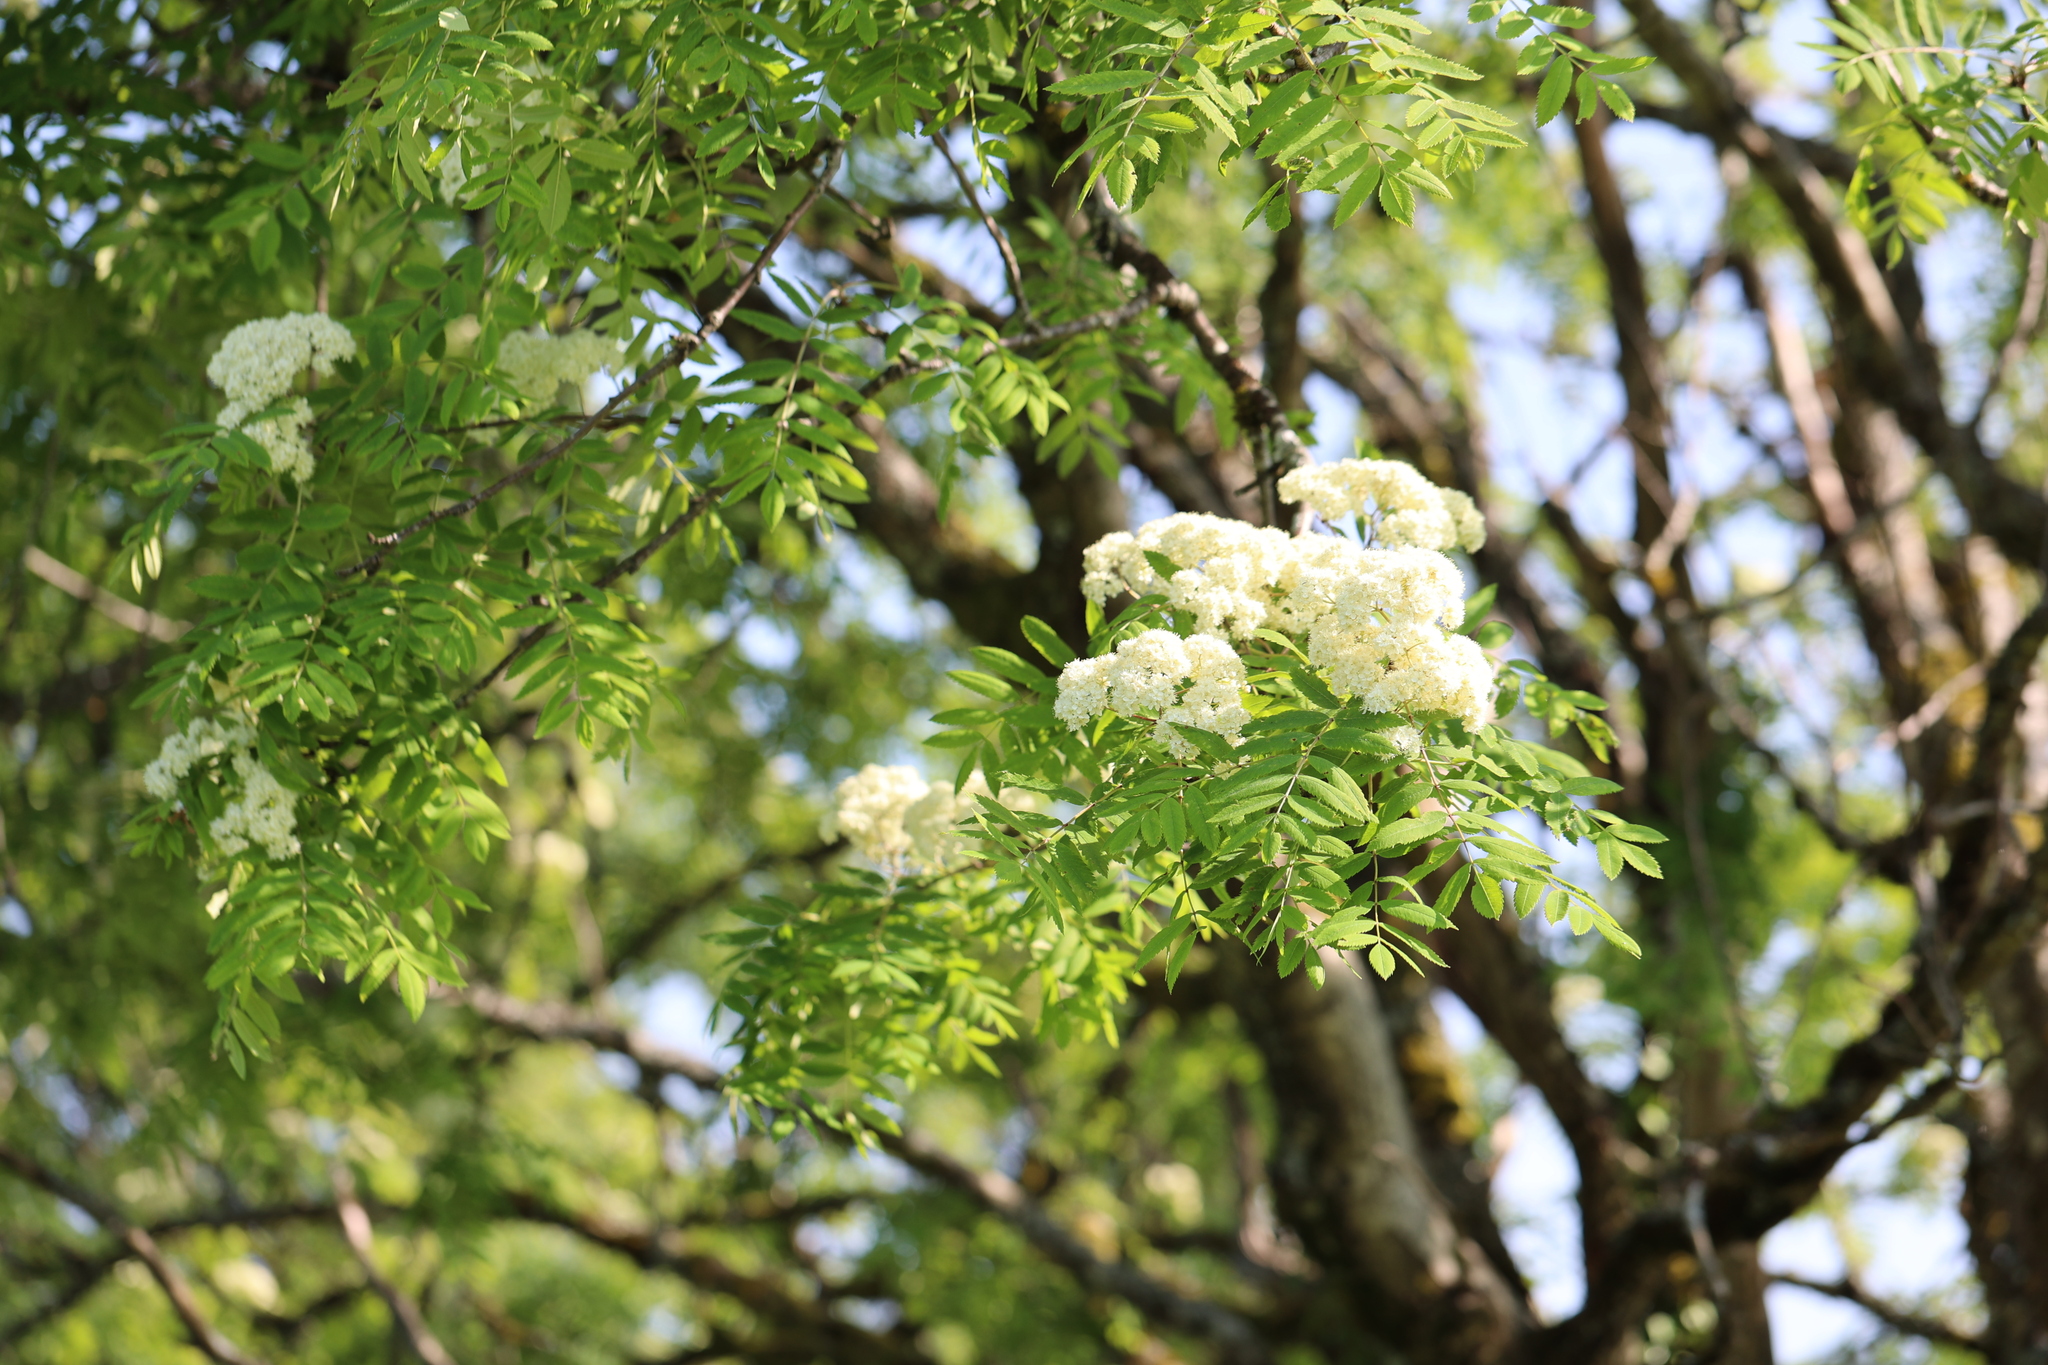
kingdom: Plantae
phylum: Tracheophyta
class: Magnoliopsida
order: Rosales
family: Rosaceae
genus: Sorbus
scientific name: Sorbus aucuparia
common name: Rowan
